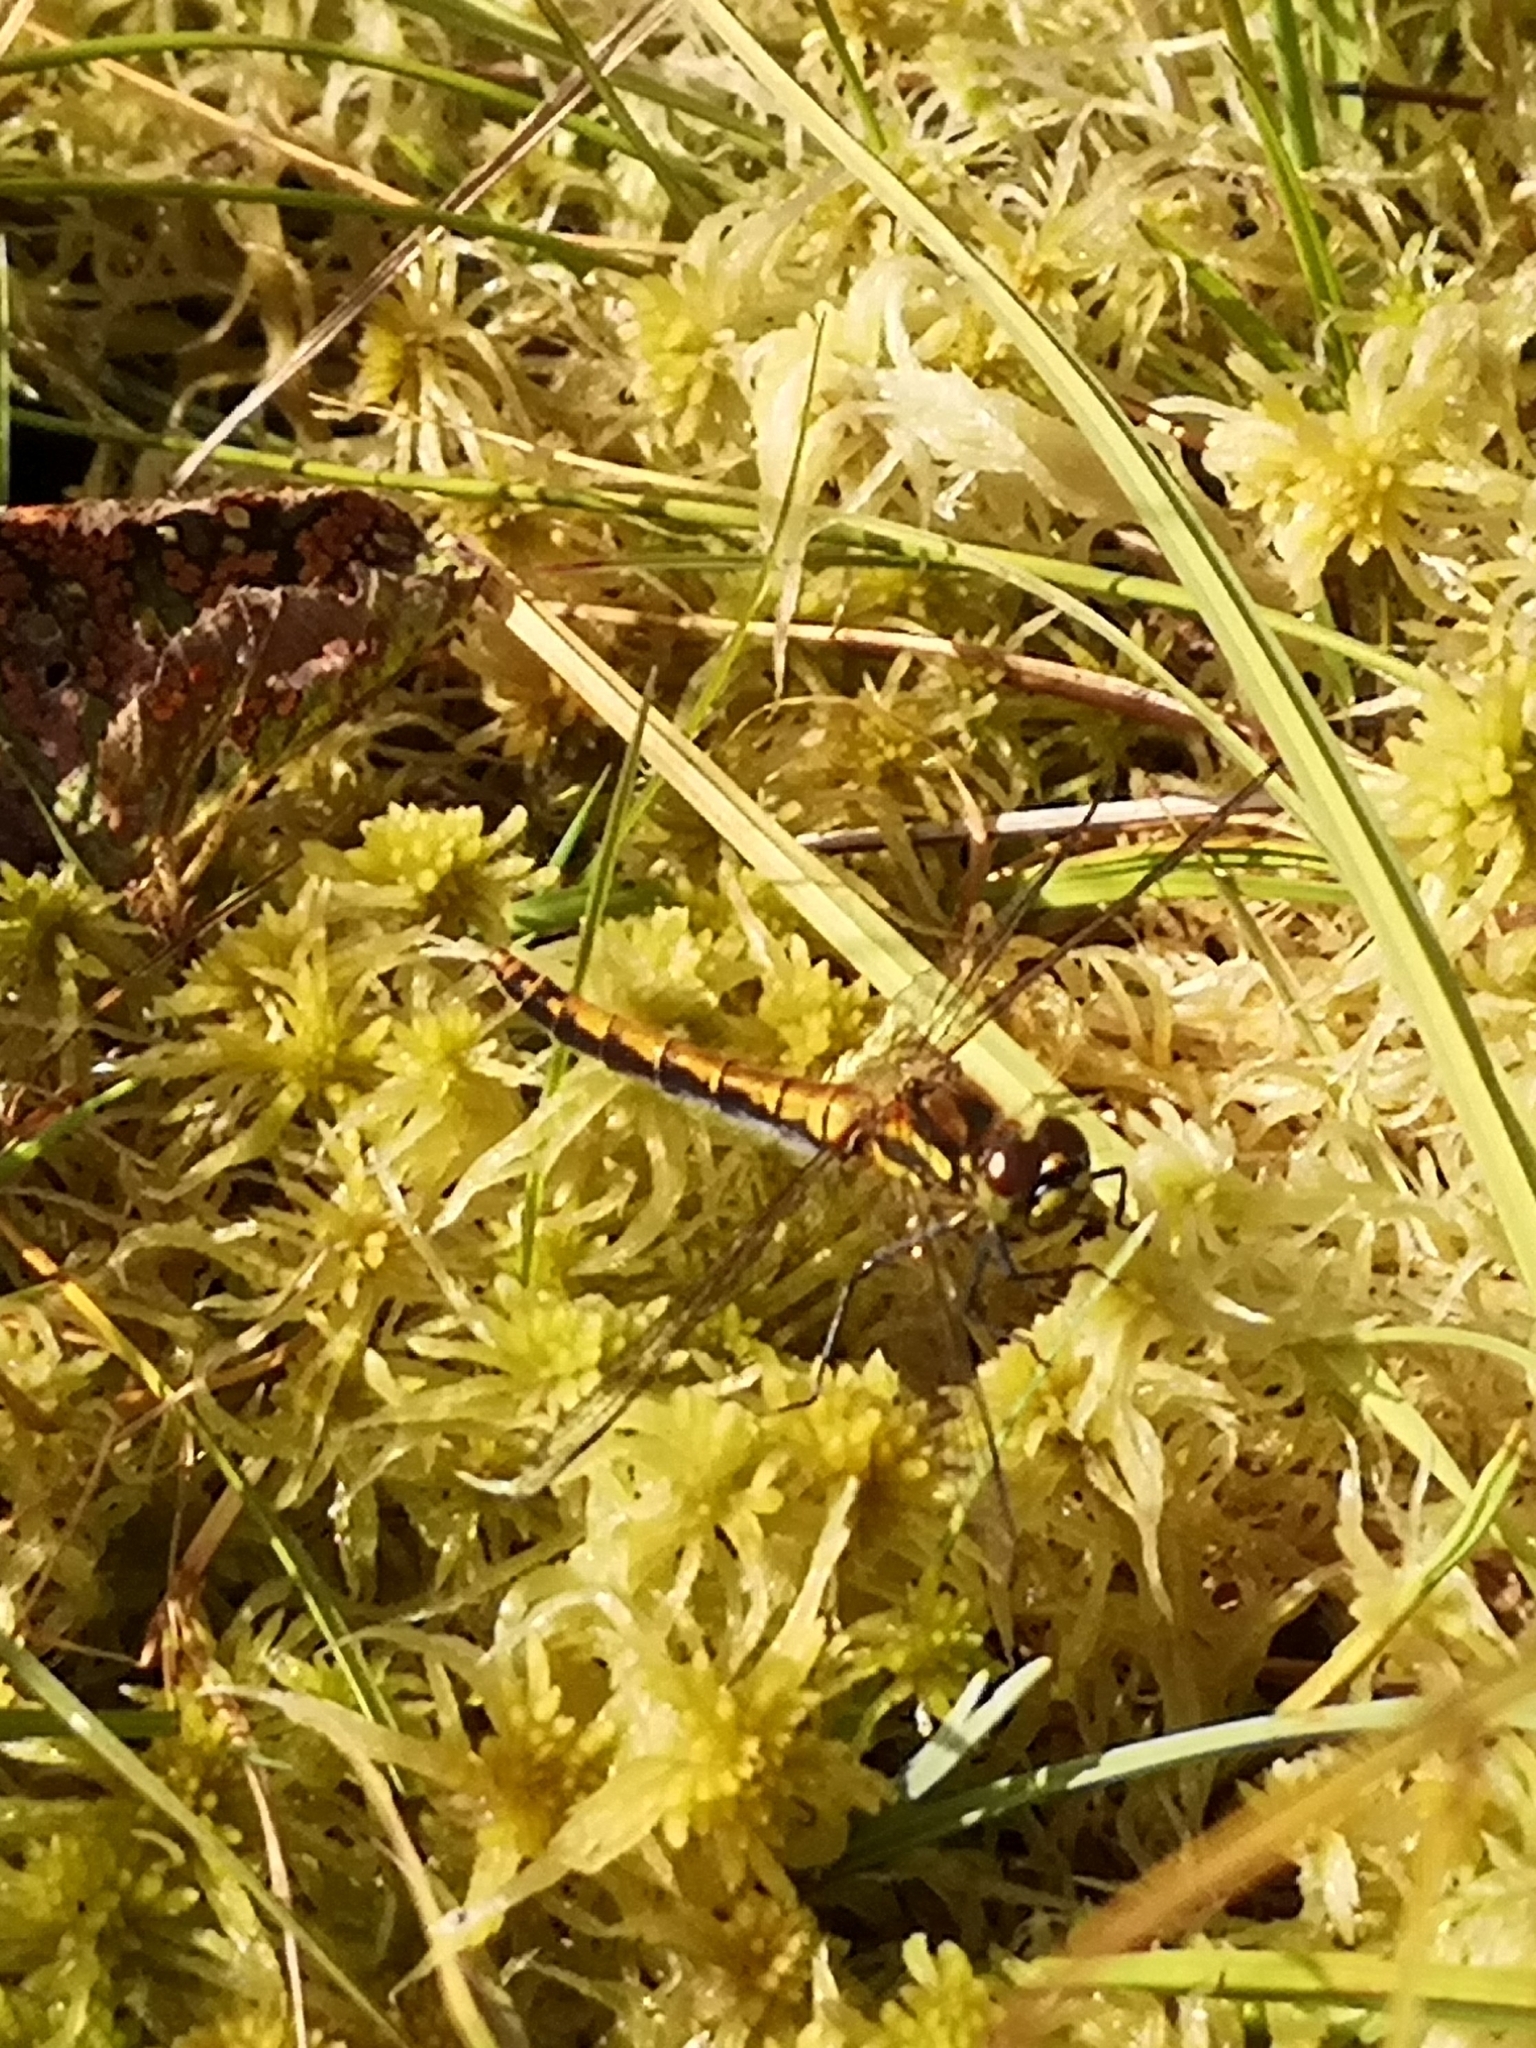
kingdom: Animalia
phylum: Arthropoda
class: Insecta
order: Odonata
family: Libellulidae
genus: Sympetrum
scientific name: Sympetrum danae
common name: Black darter
